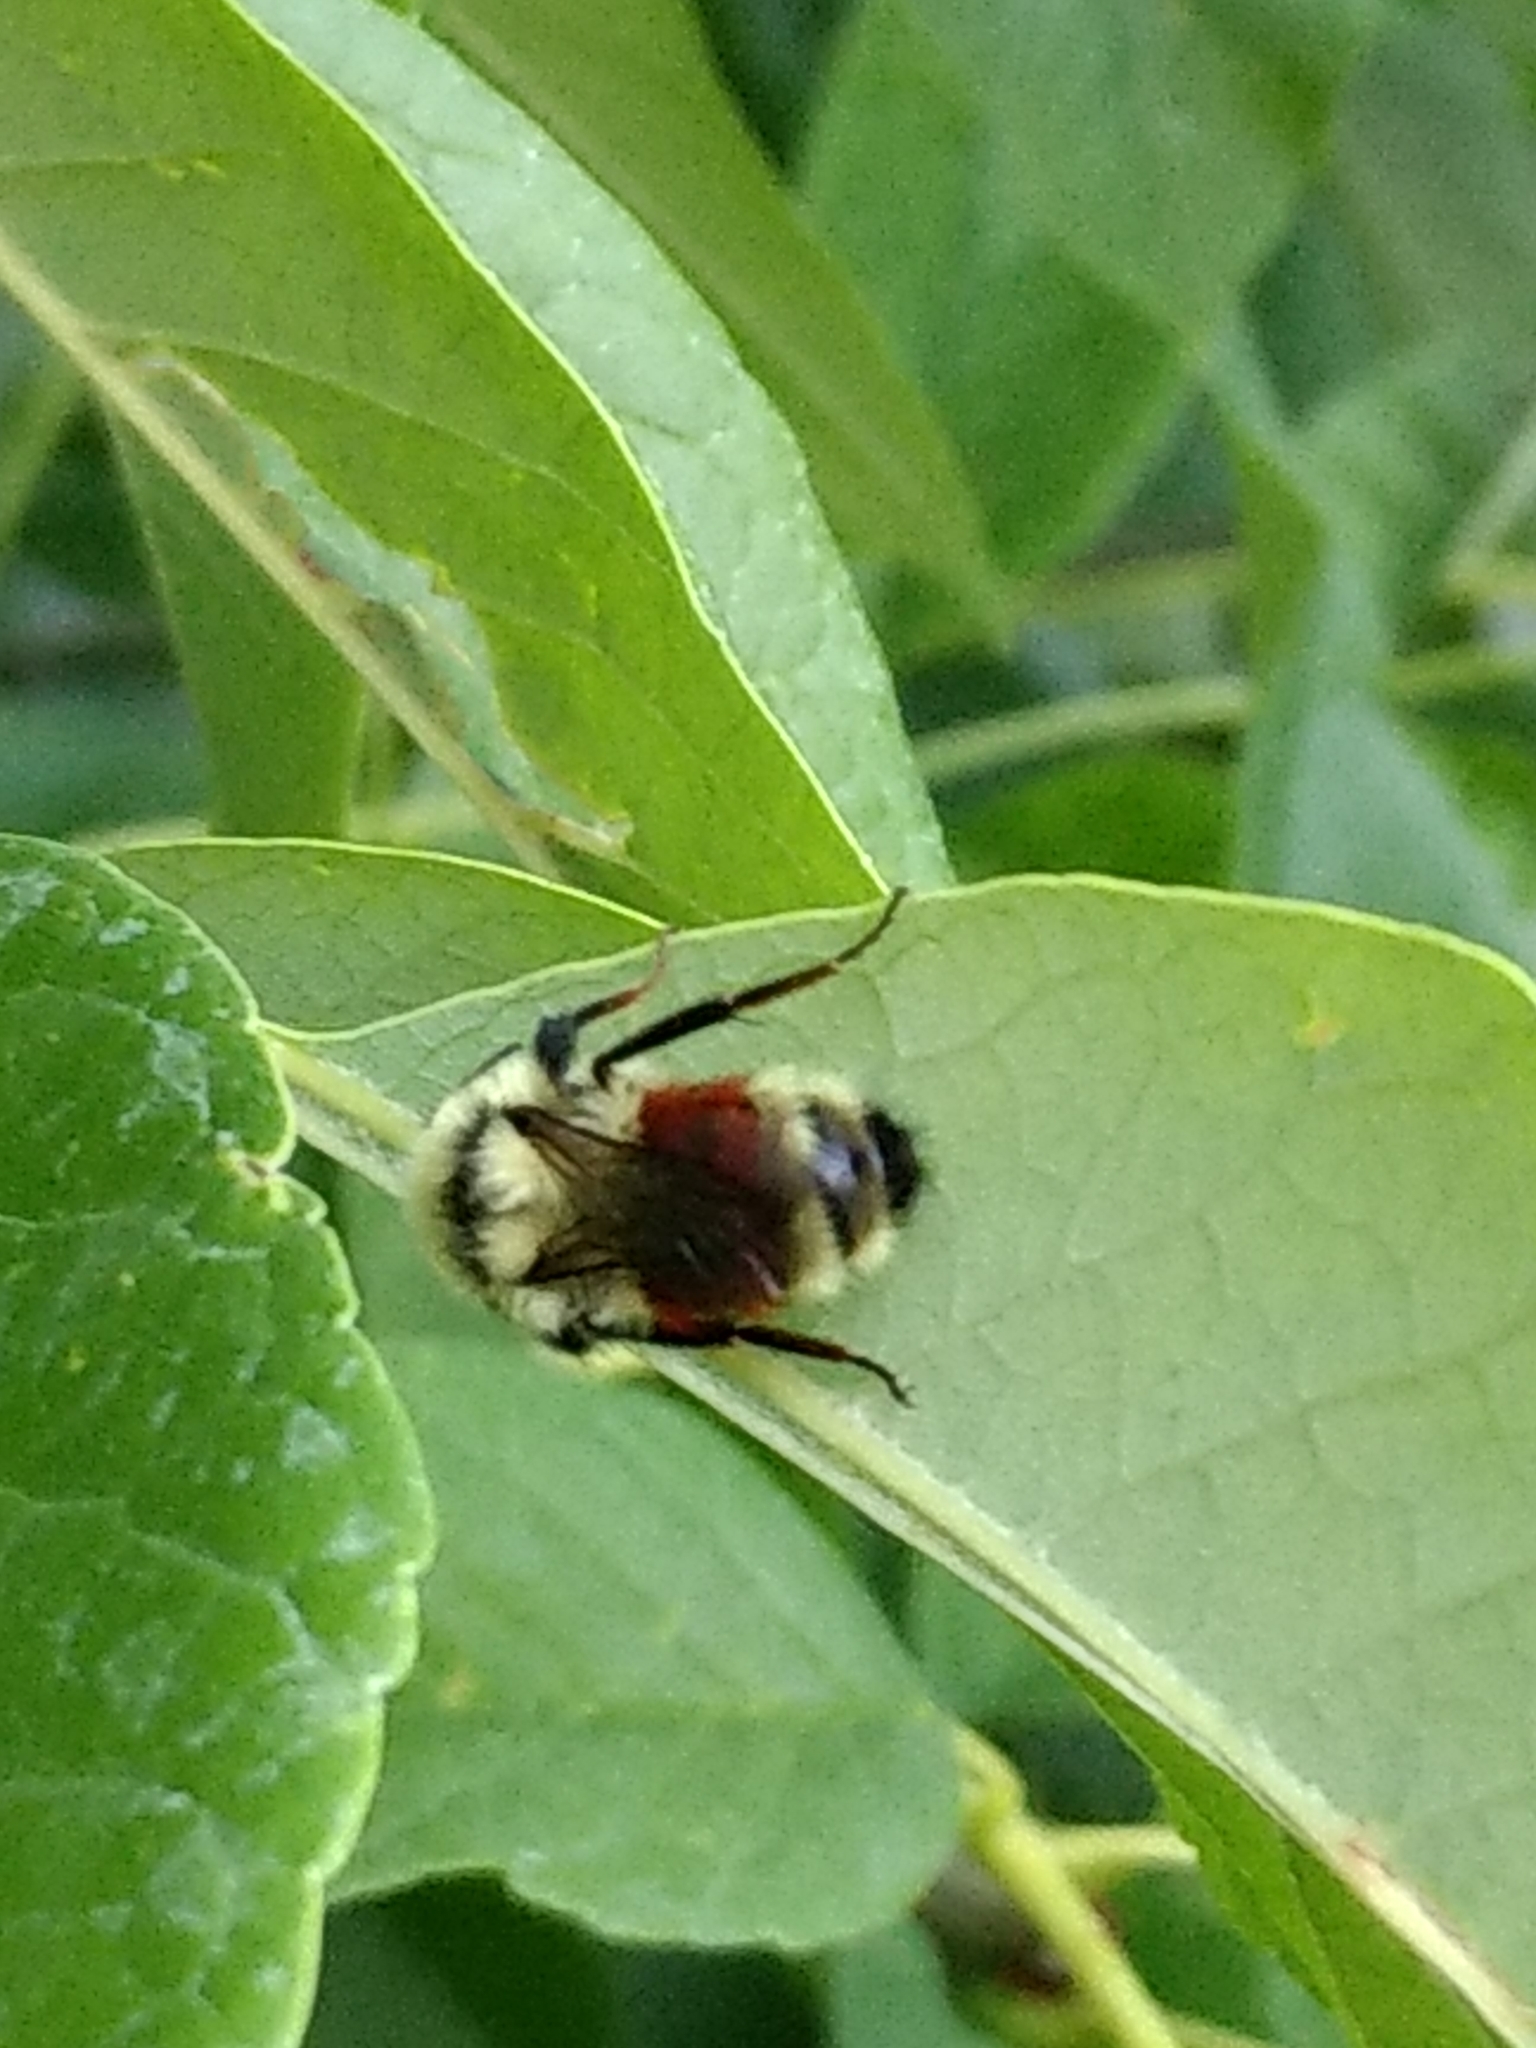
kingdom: Animalia
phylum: Arthropoda
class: Insecta
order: Hymenoptera
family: Apidae
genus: Bombus
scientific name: Bombus huntii
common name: Hunt bumble bee
